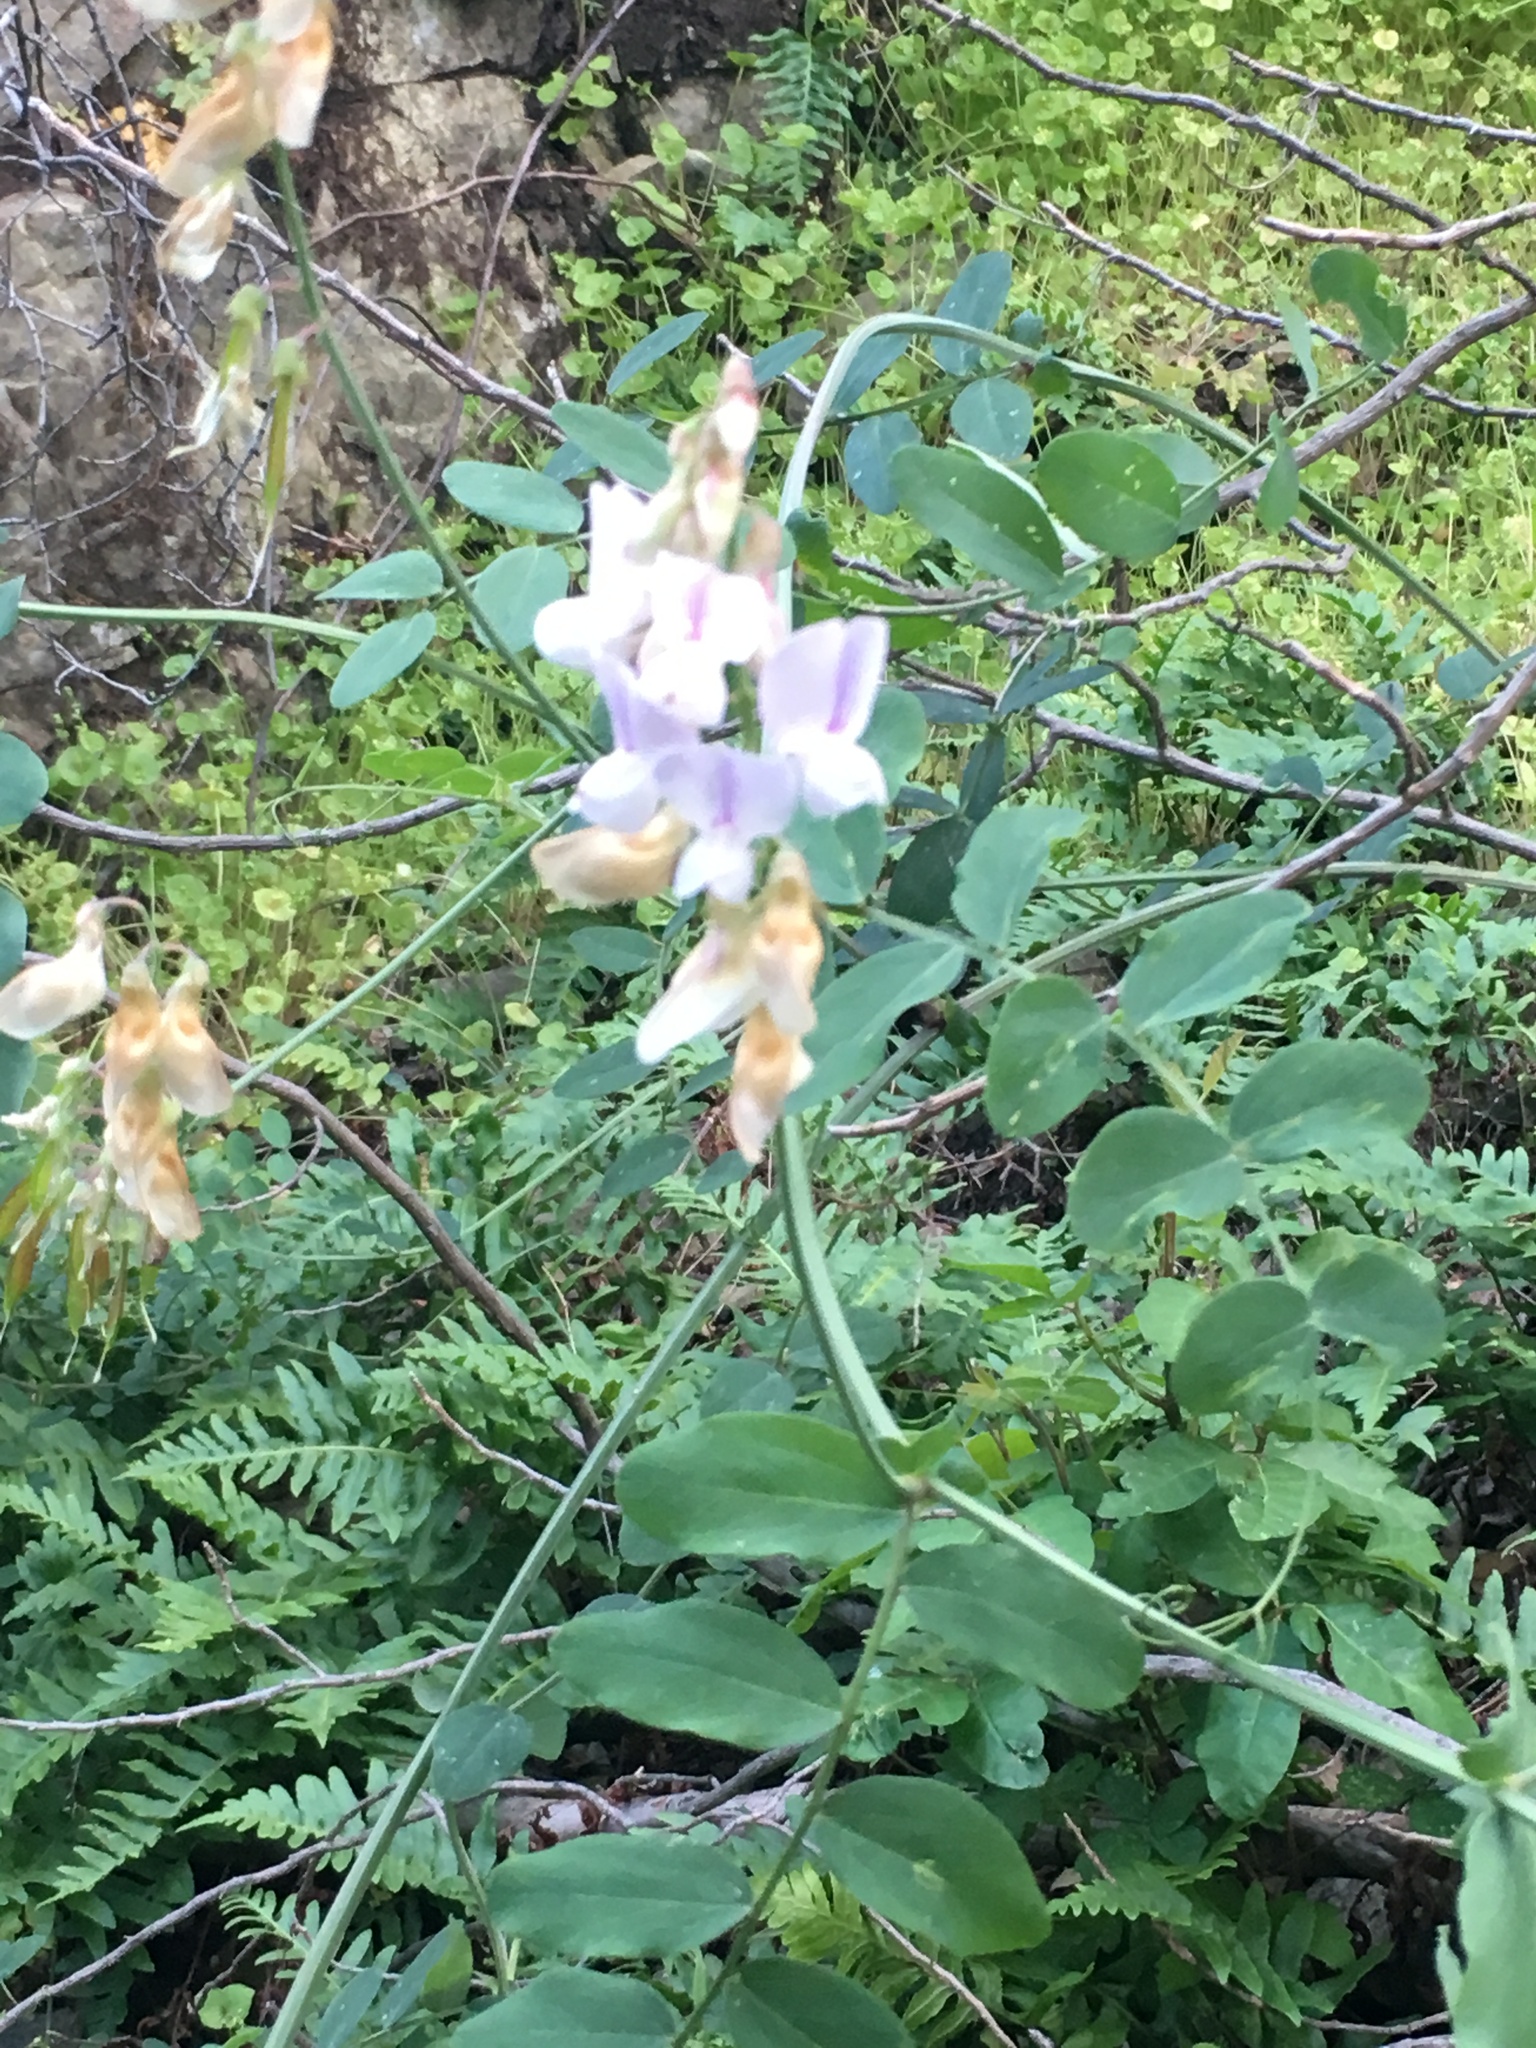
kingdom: Plantae
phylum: Tracheophyta
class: Magnoliopsida
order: Fabales
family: Fabaceae
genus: Lathyrus
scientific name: Lathyrus vestitus
